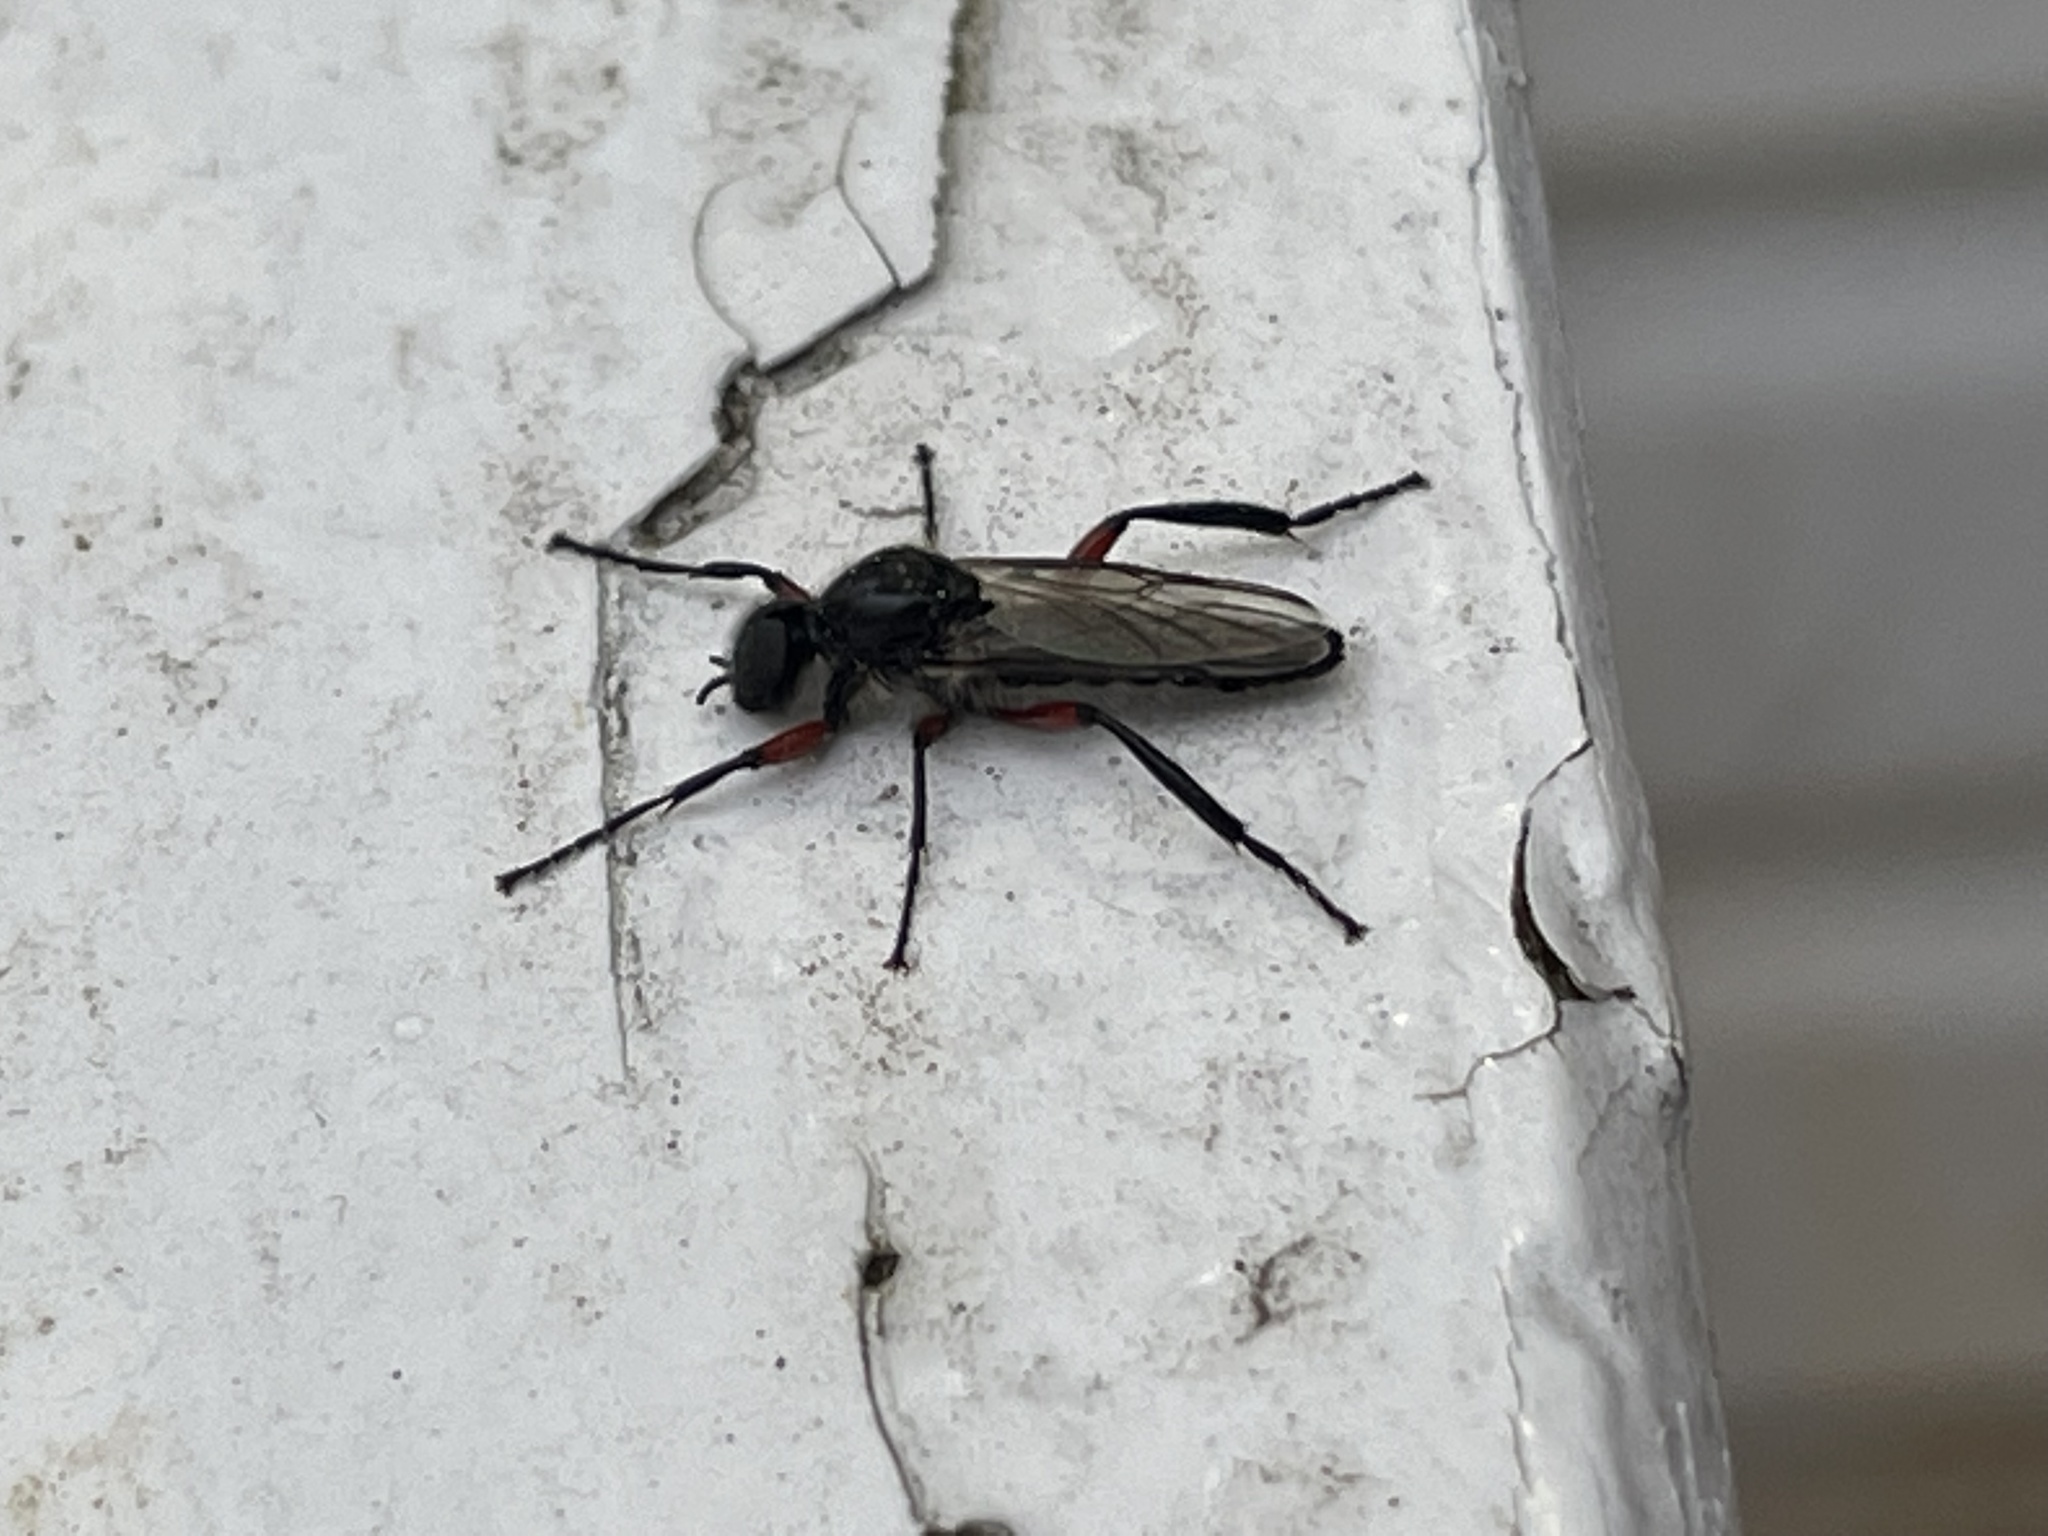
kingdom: Animalia
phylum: Arthropoda
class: Insecta
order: Diptera
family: Bibionidae
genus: Bibio
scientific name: Bibio femoratus
